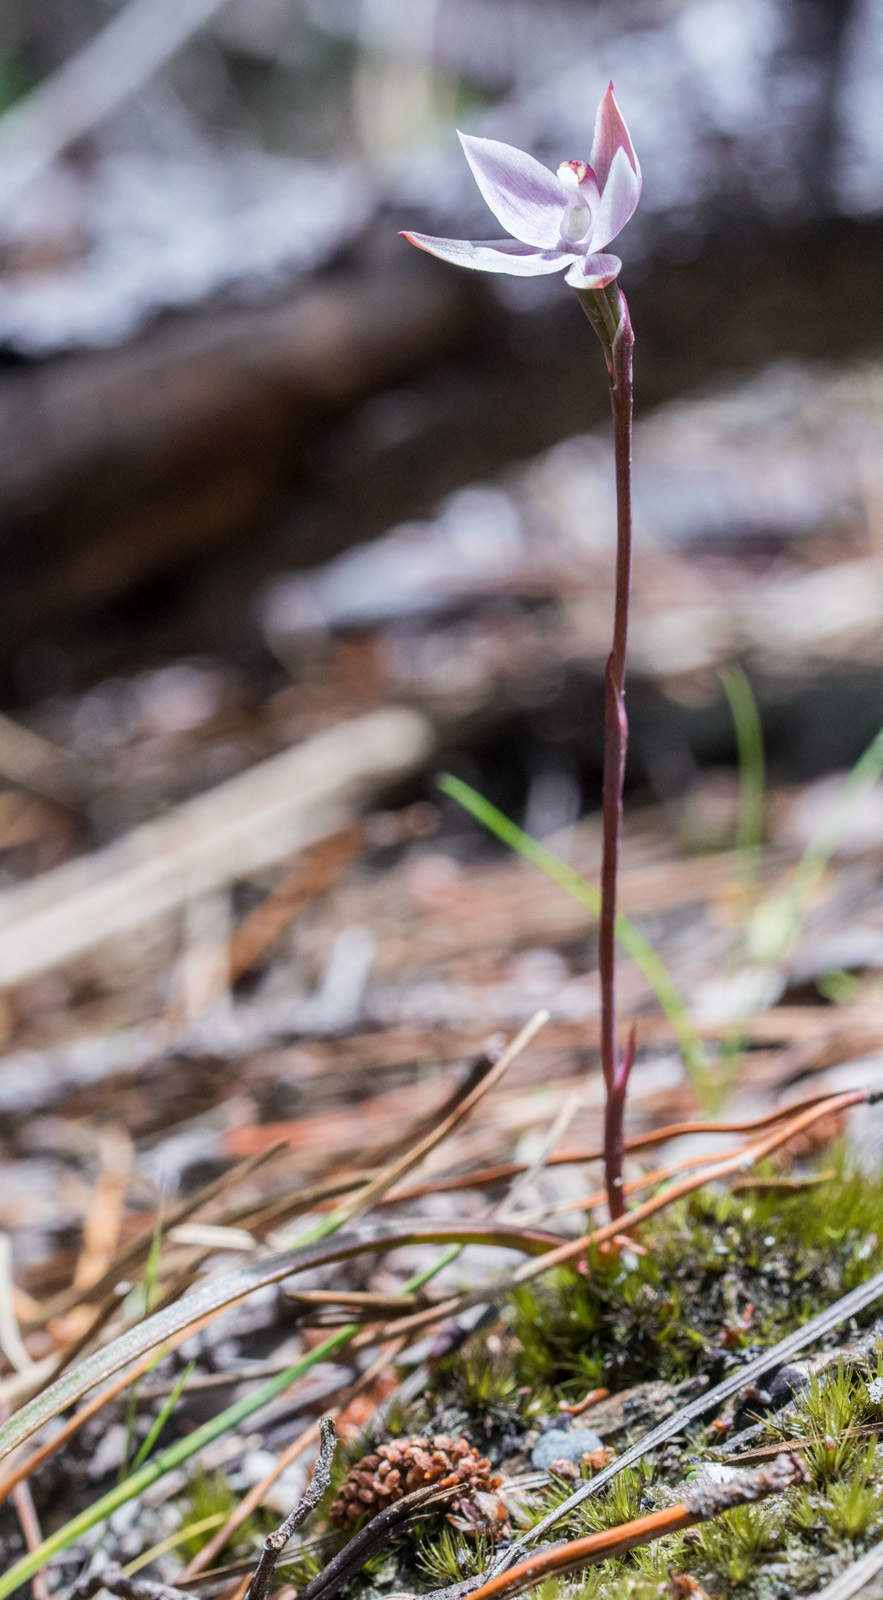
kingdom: Plantae
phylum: Tracheophyta
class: Liliopsida
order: Asparagales
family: Orchidaceae
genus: Thelymitra
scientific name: Thelymitra longifolia
